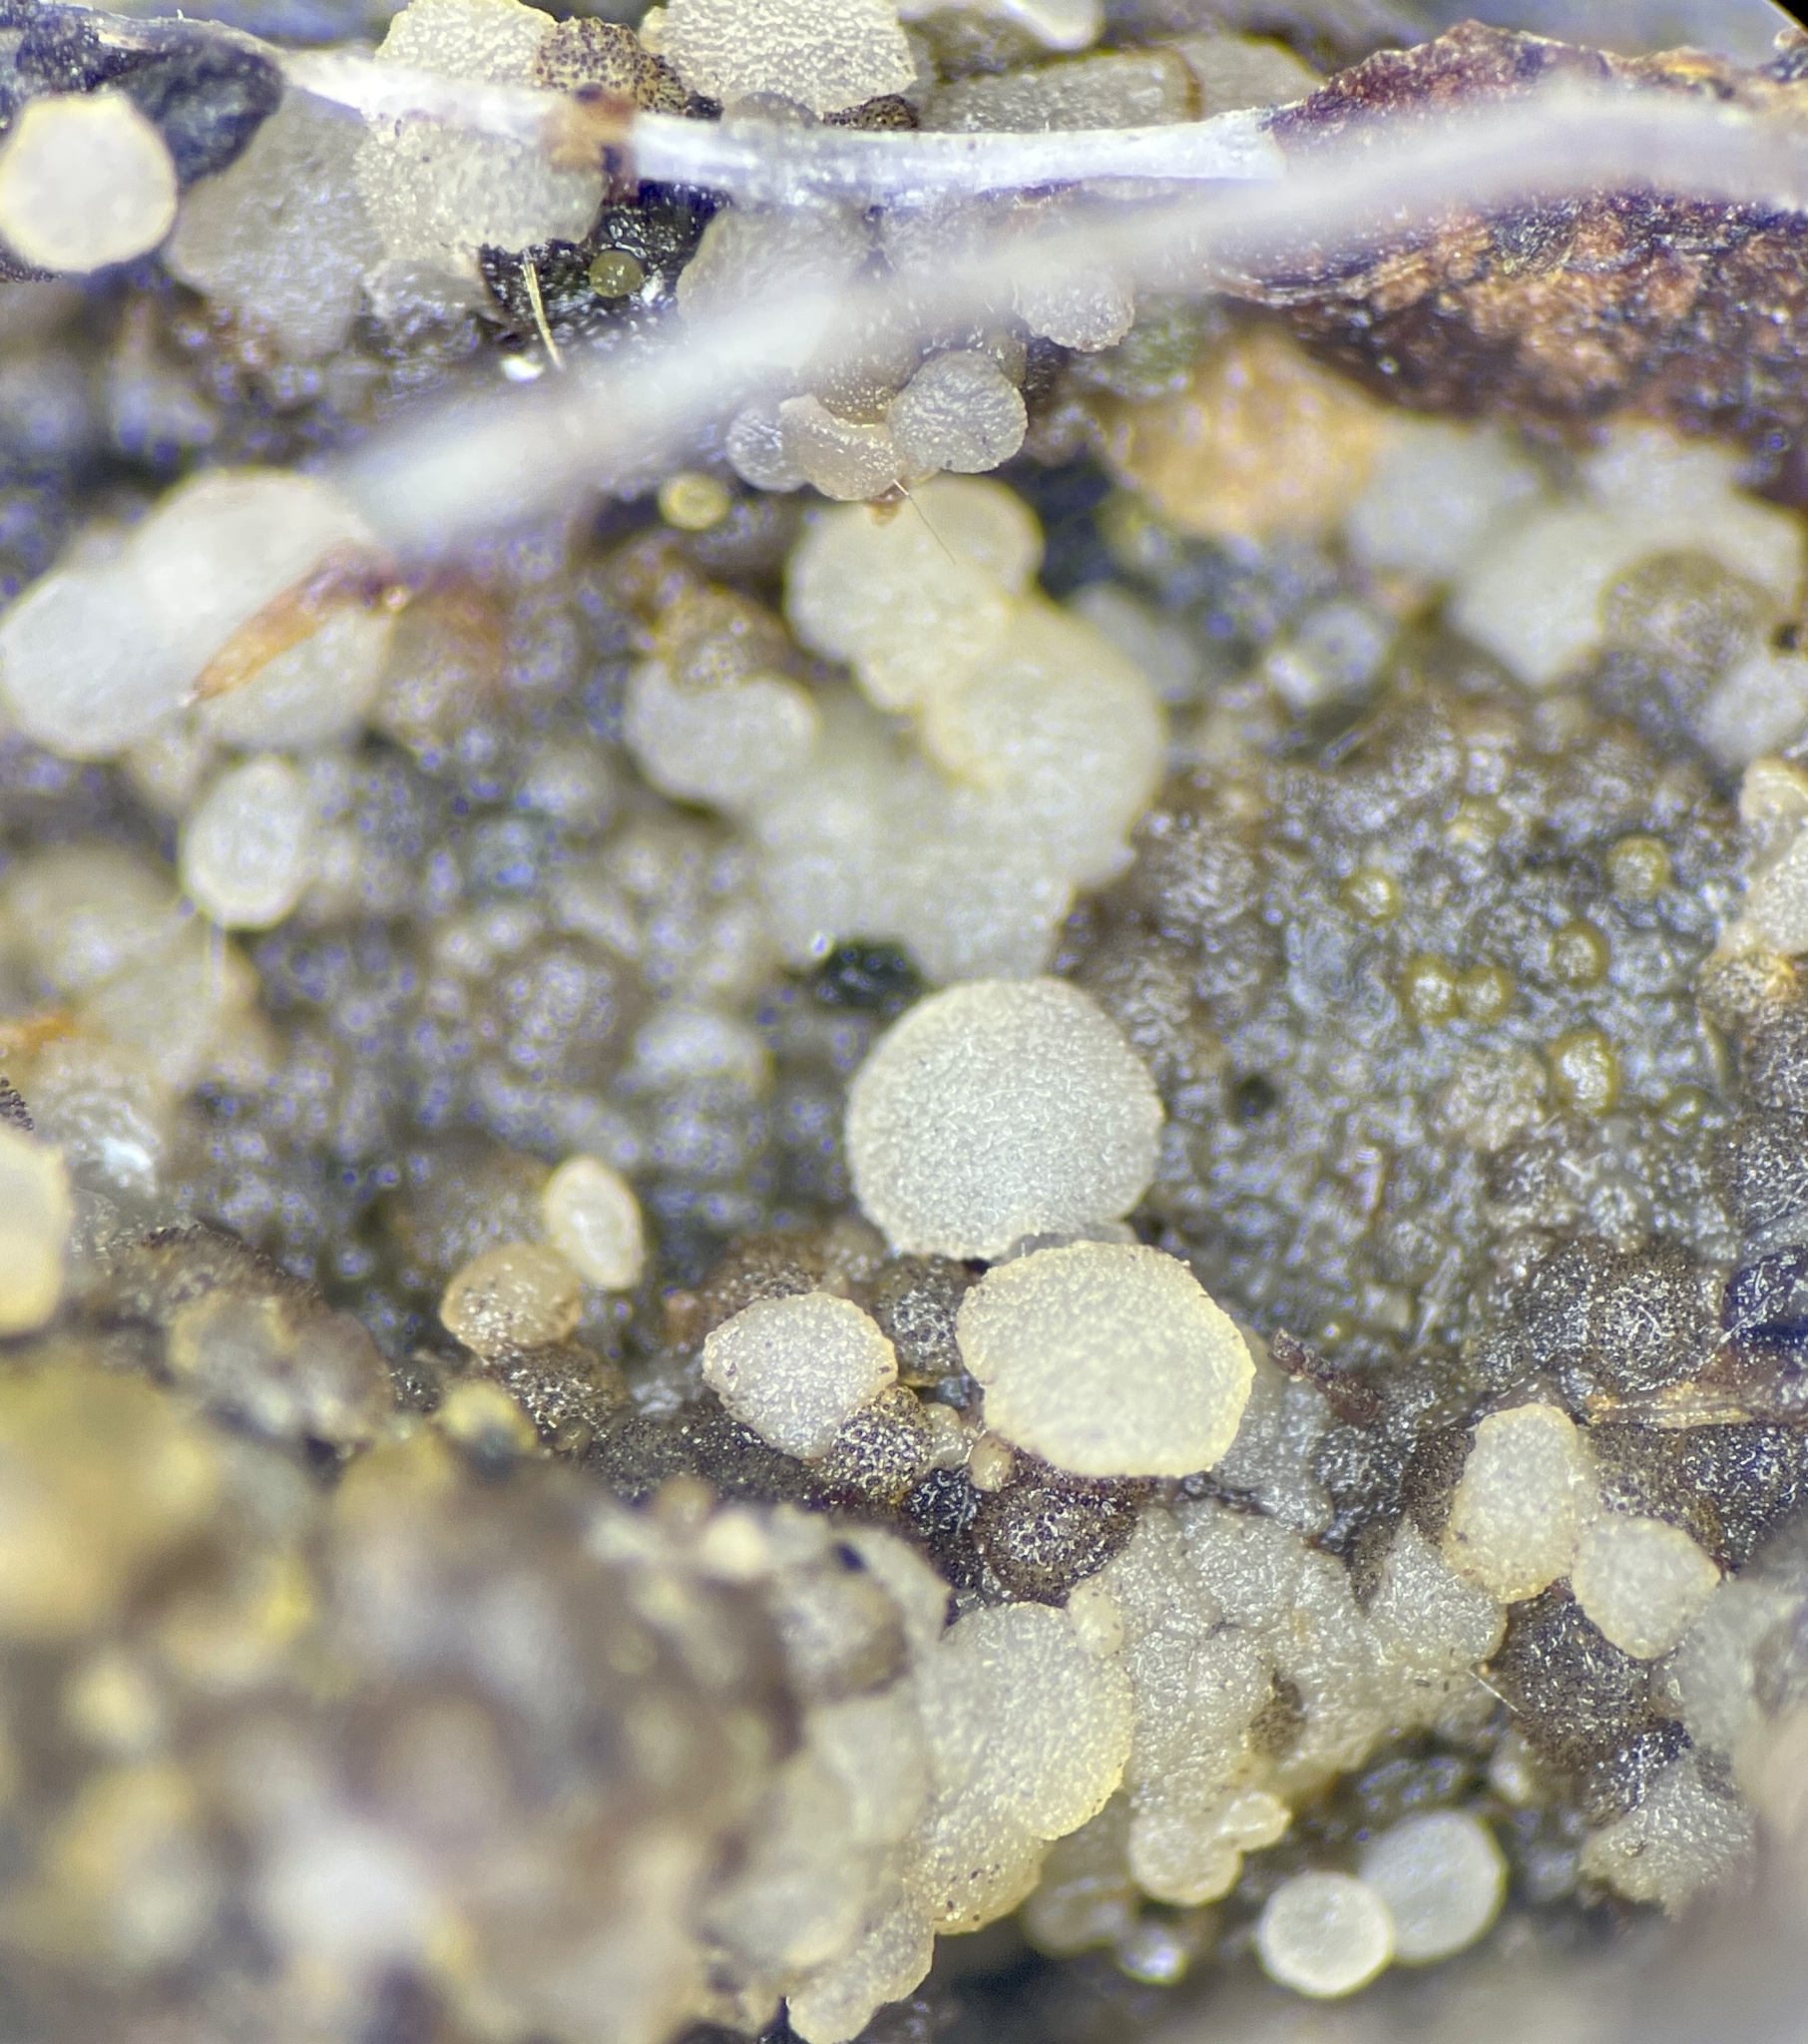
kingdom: Fungi
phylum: Ascomycota
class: Pezizomycetes
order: Pezizales
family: Pezizaceae
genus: Iodophanus
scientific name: Iodophanus carneus
